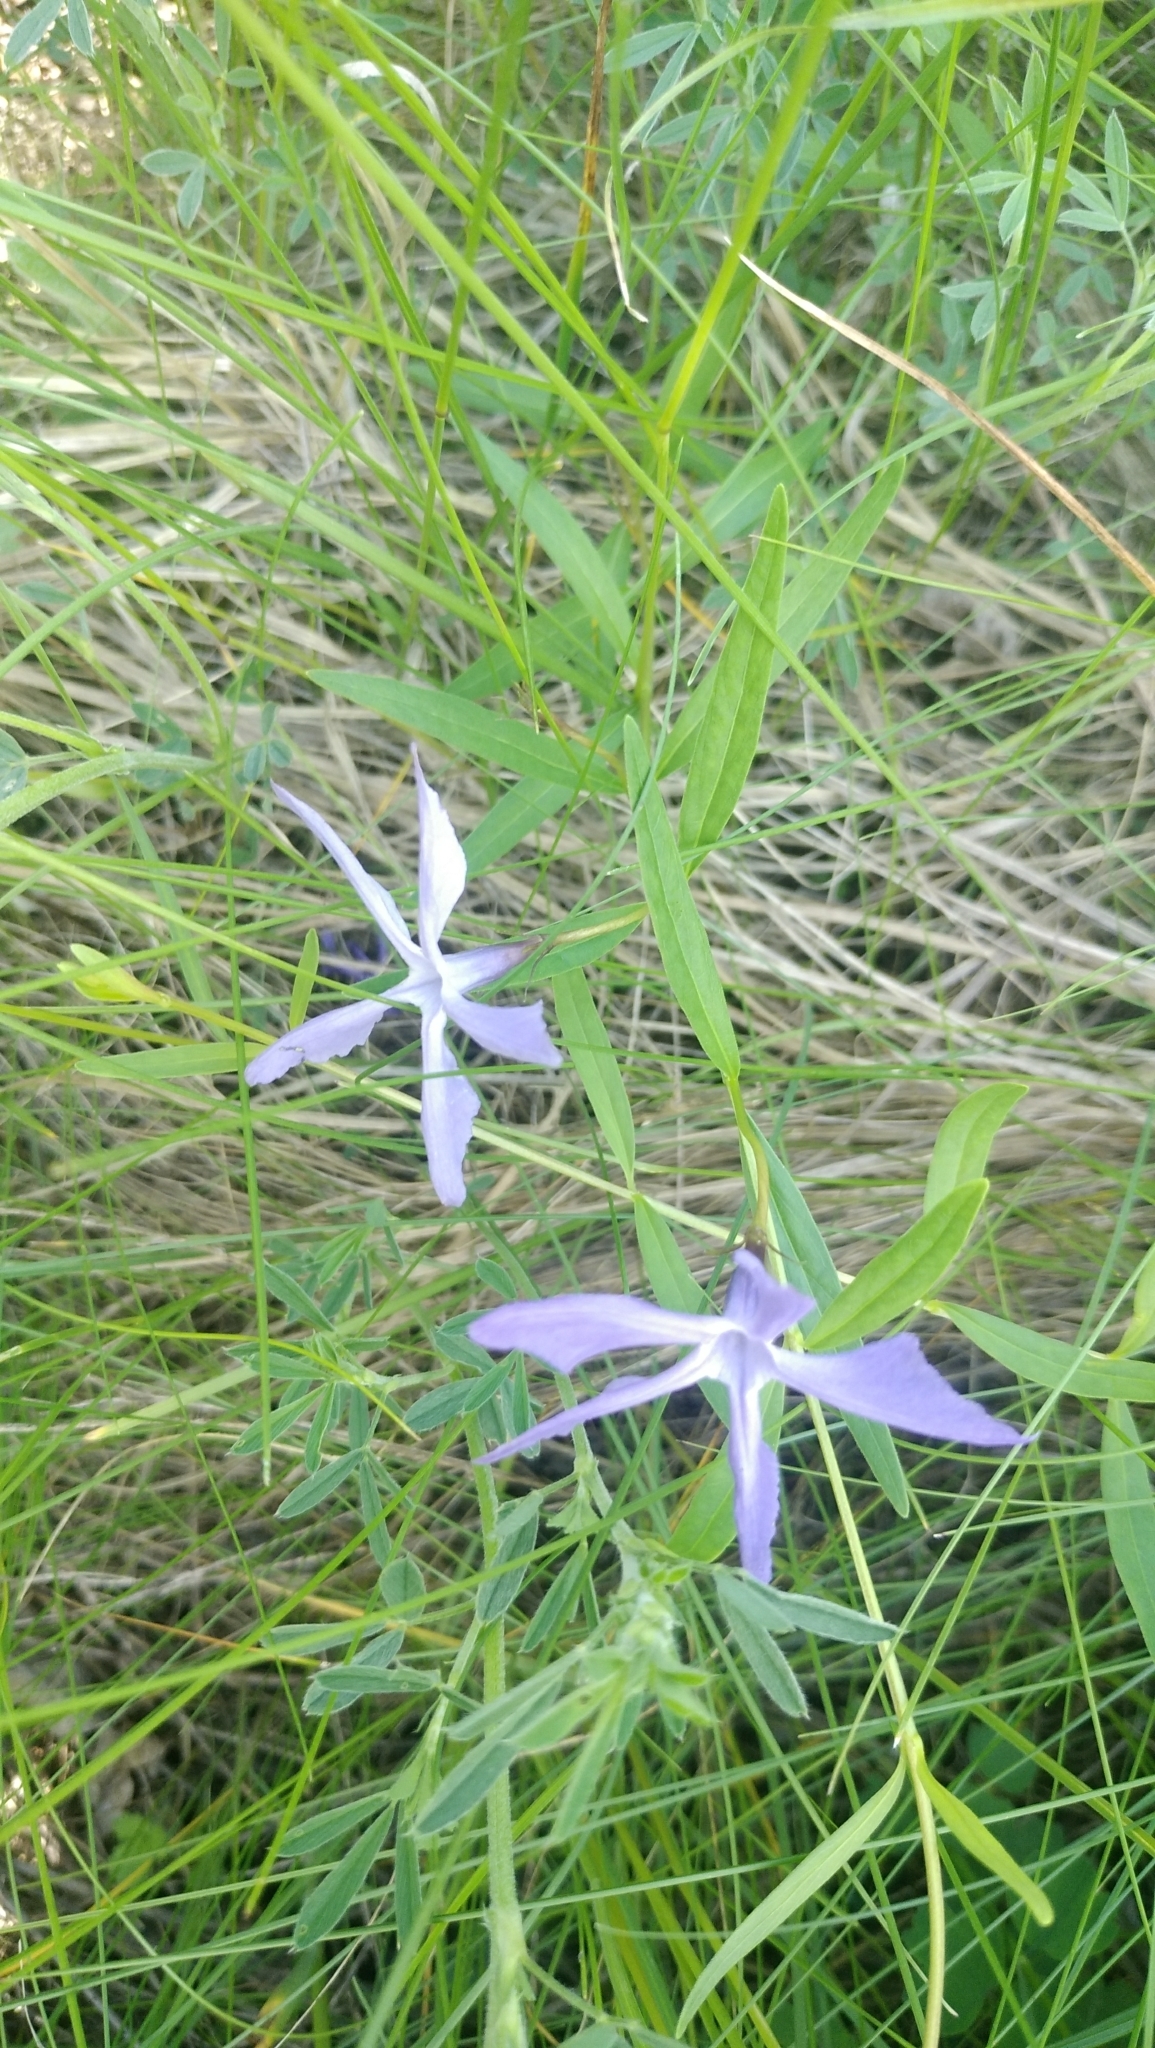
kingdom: Plantae
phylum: Tracheophyta
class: Magnoliopsida
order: Gentianales
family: Apocynaceae
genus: Vinca
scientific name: Vinca herbacea
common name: Herbaceous periwinkle
